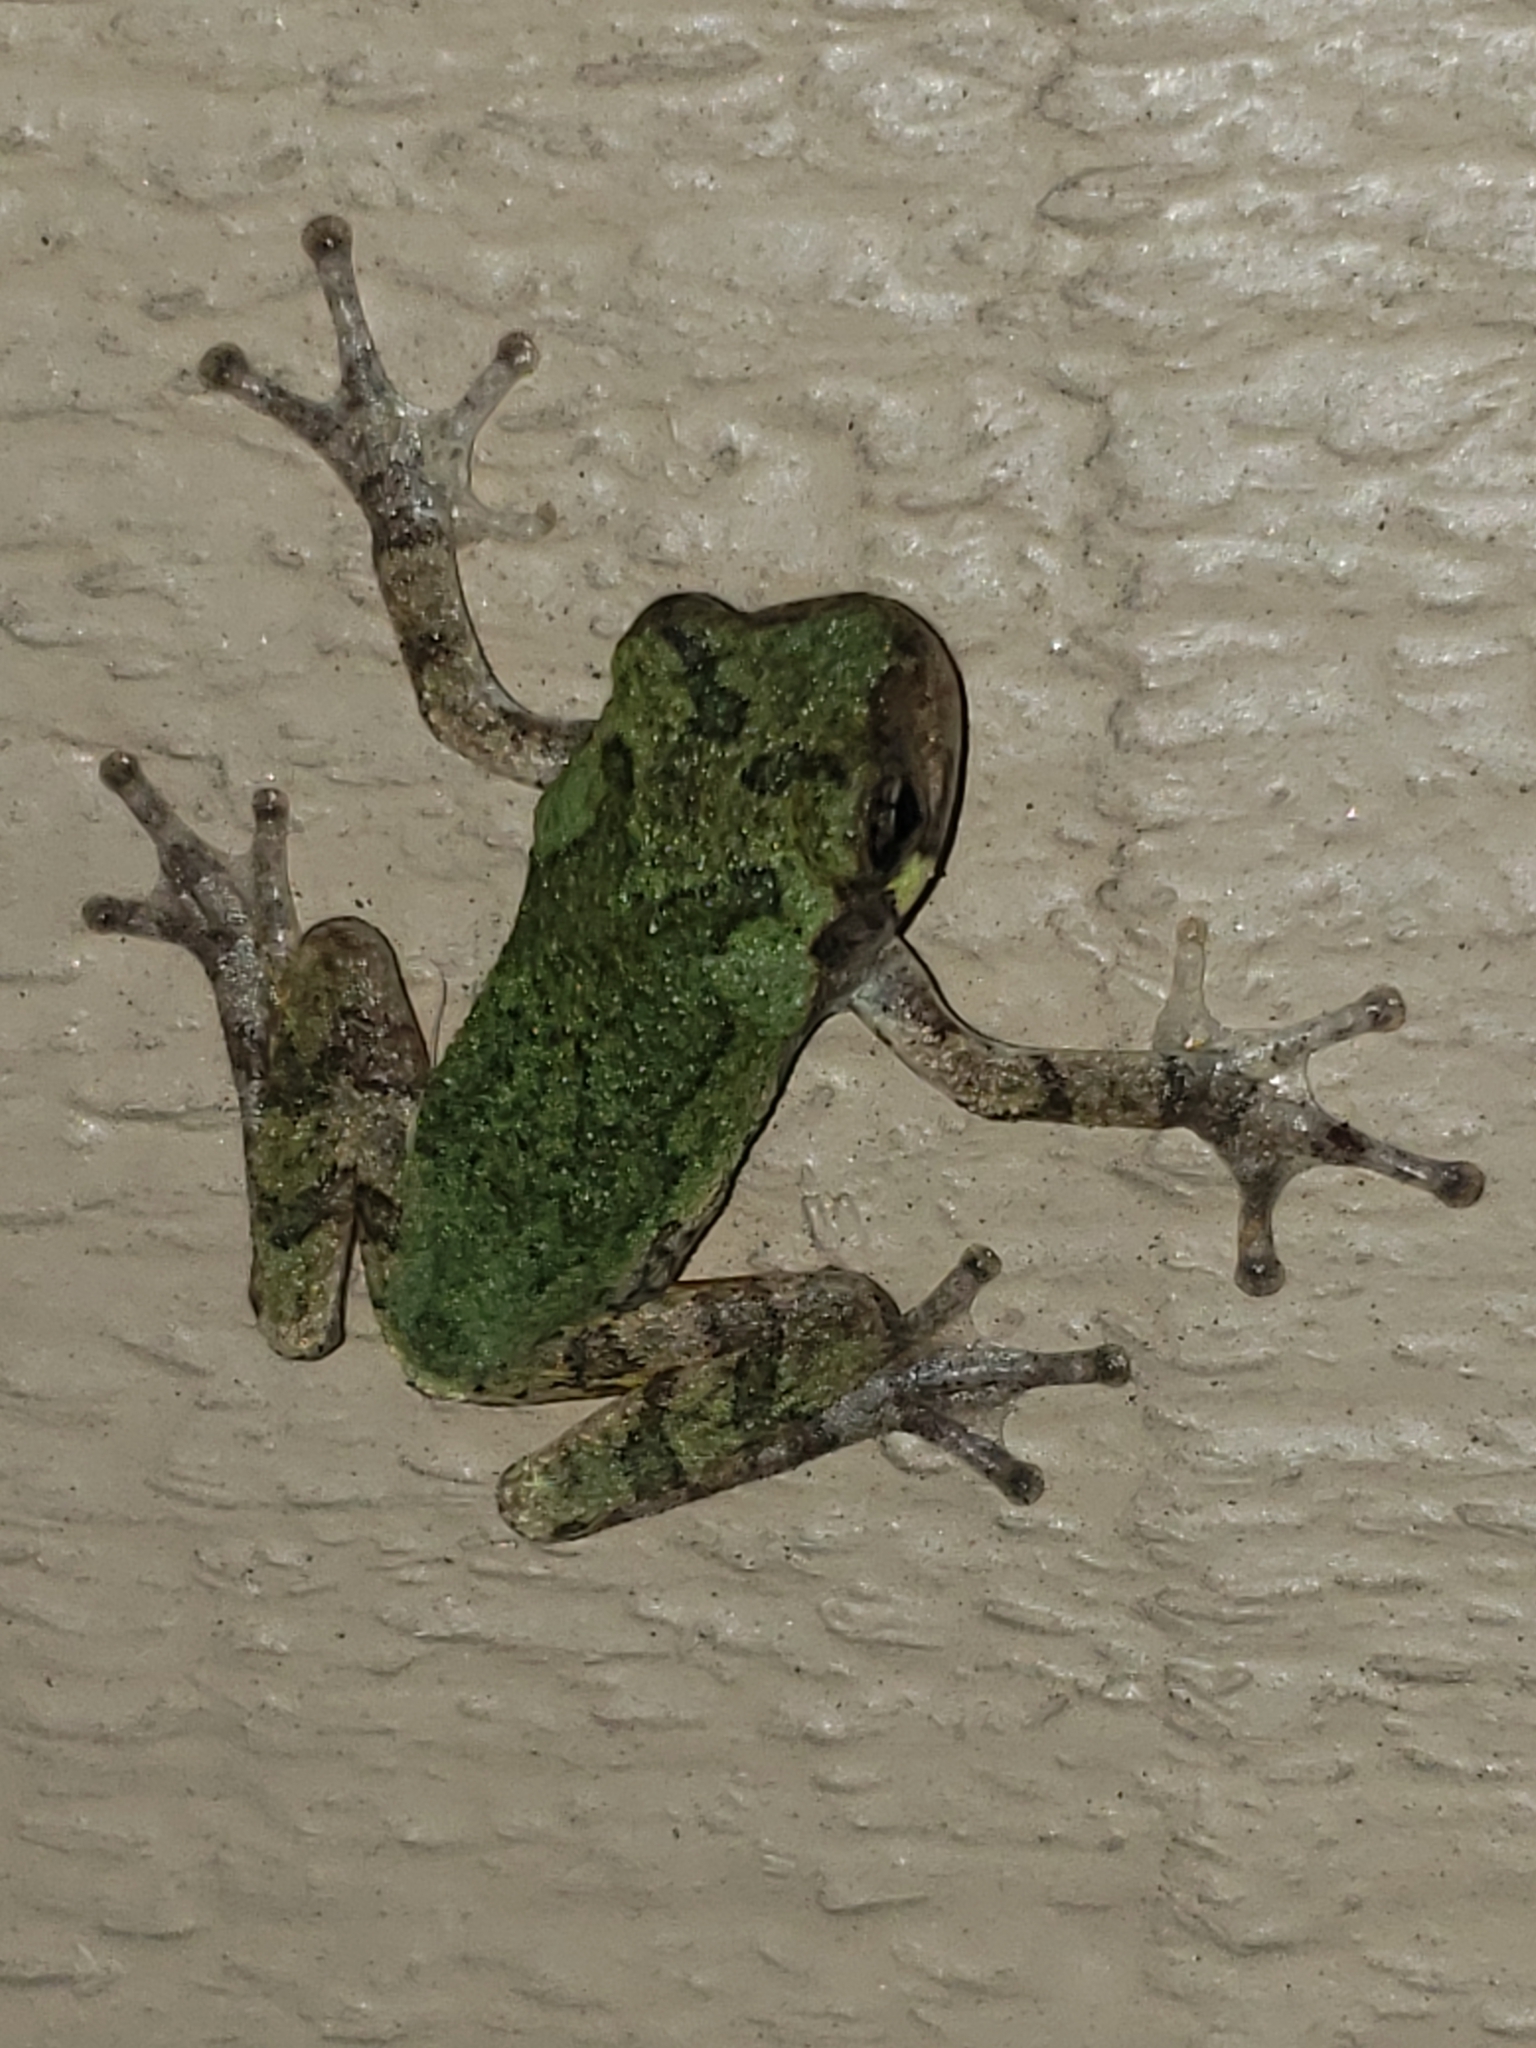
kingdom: Animalia
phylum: Chordata
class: Amphibia
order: Anura
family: Hylidae
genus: Hyla
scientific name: Hyla
